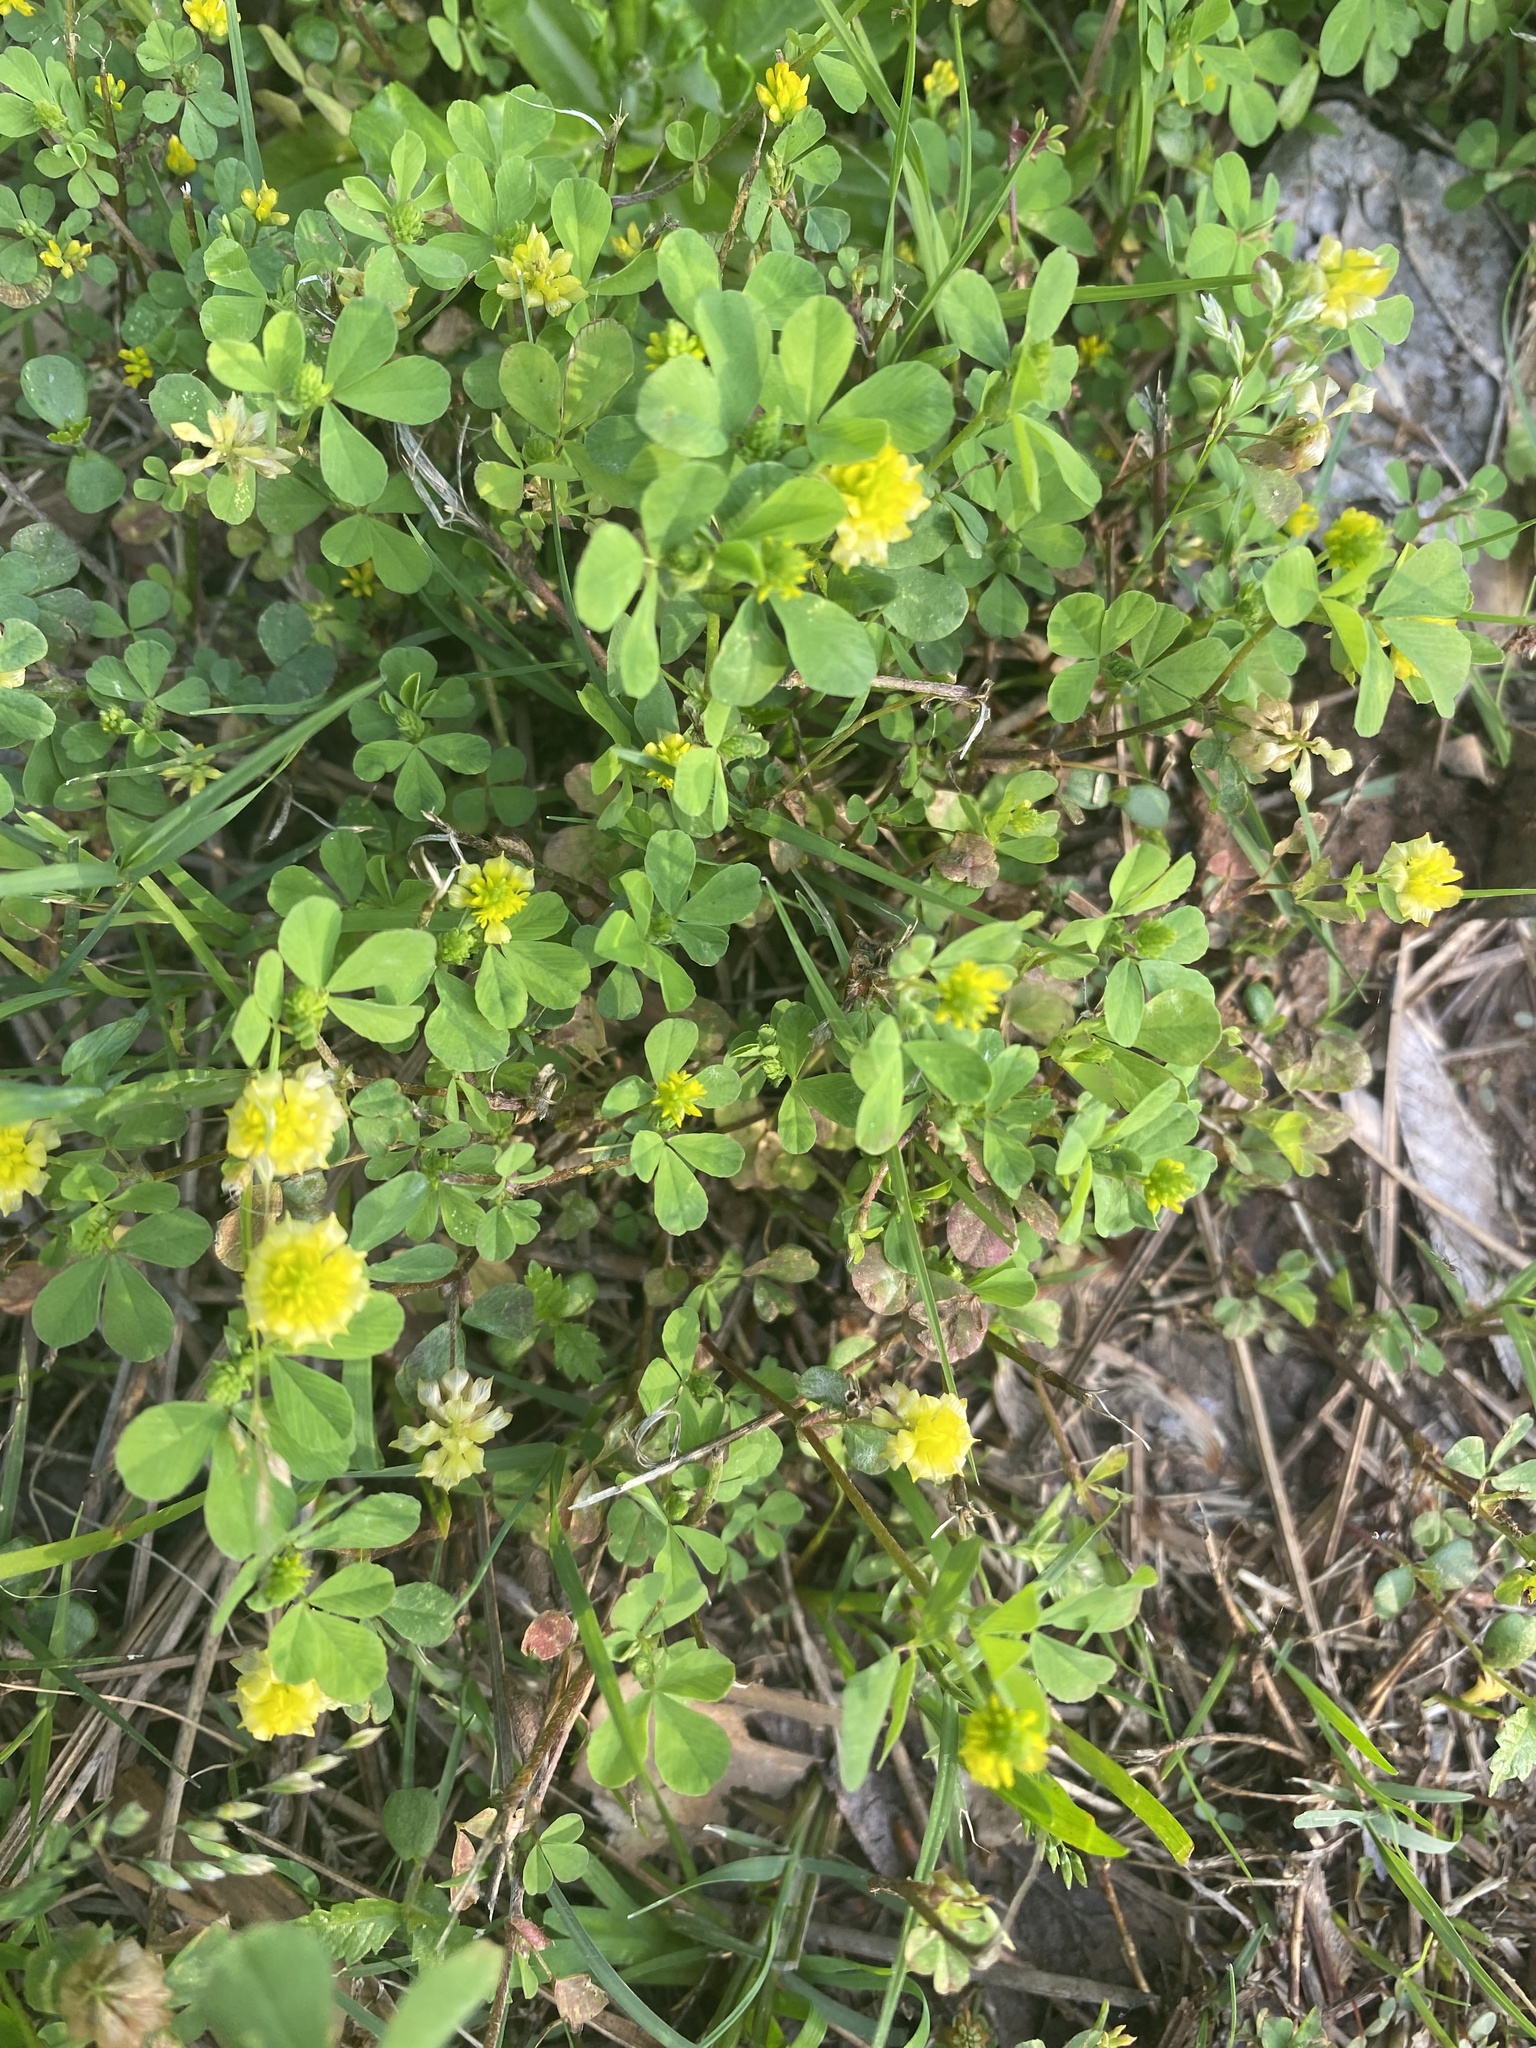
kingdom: Plantae
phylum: Tracheophyta
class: Magnoliopsida
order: Fabales
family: Fabaceae
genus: Trifolium
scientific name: Trifolium campestre
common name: Field clover
